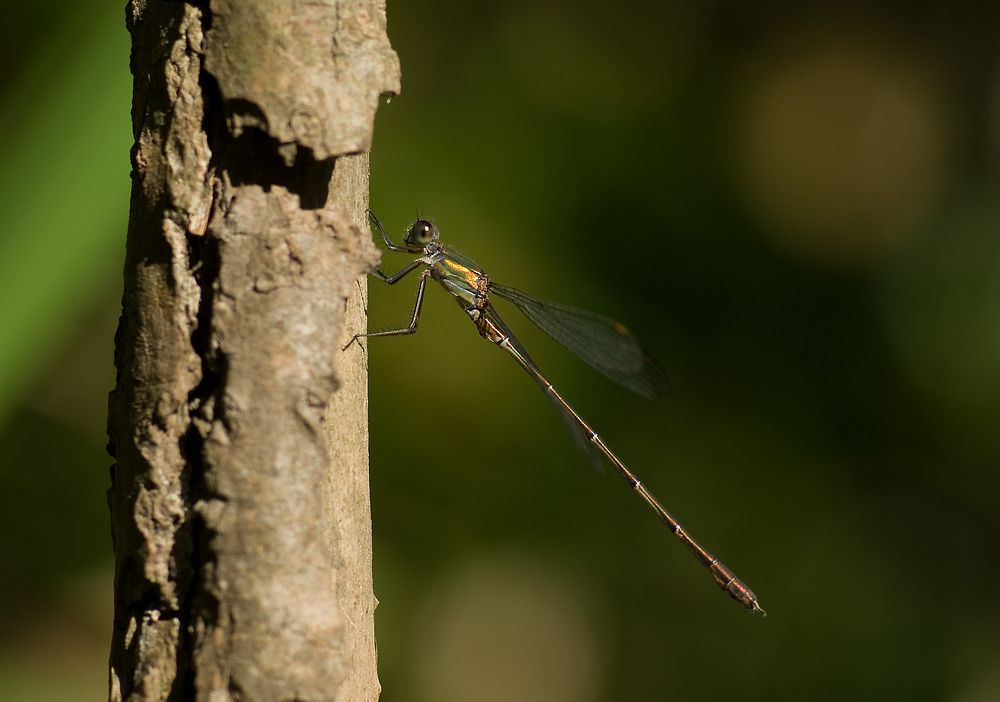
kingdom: Animalia
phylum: Arthropoda
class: Insecta
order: Odonata
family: Lestidae
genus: Chalcolestes
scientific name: Chalcolestes viridis
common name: Green emerald damselfly
